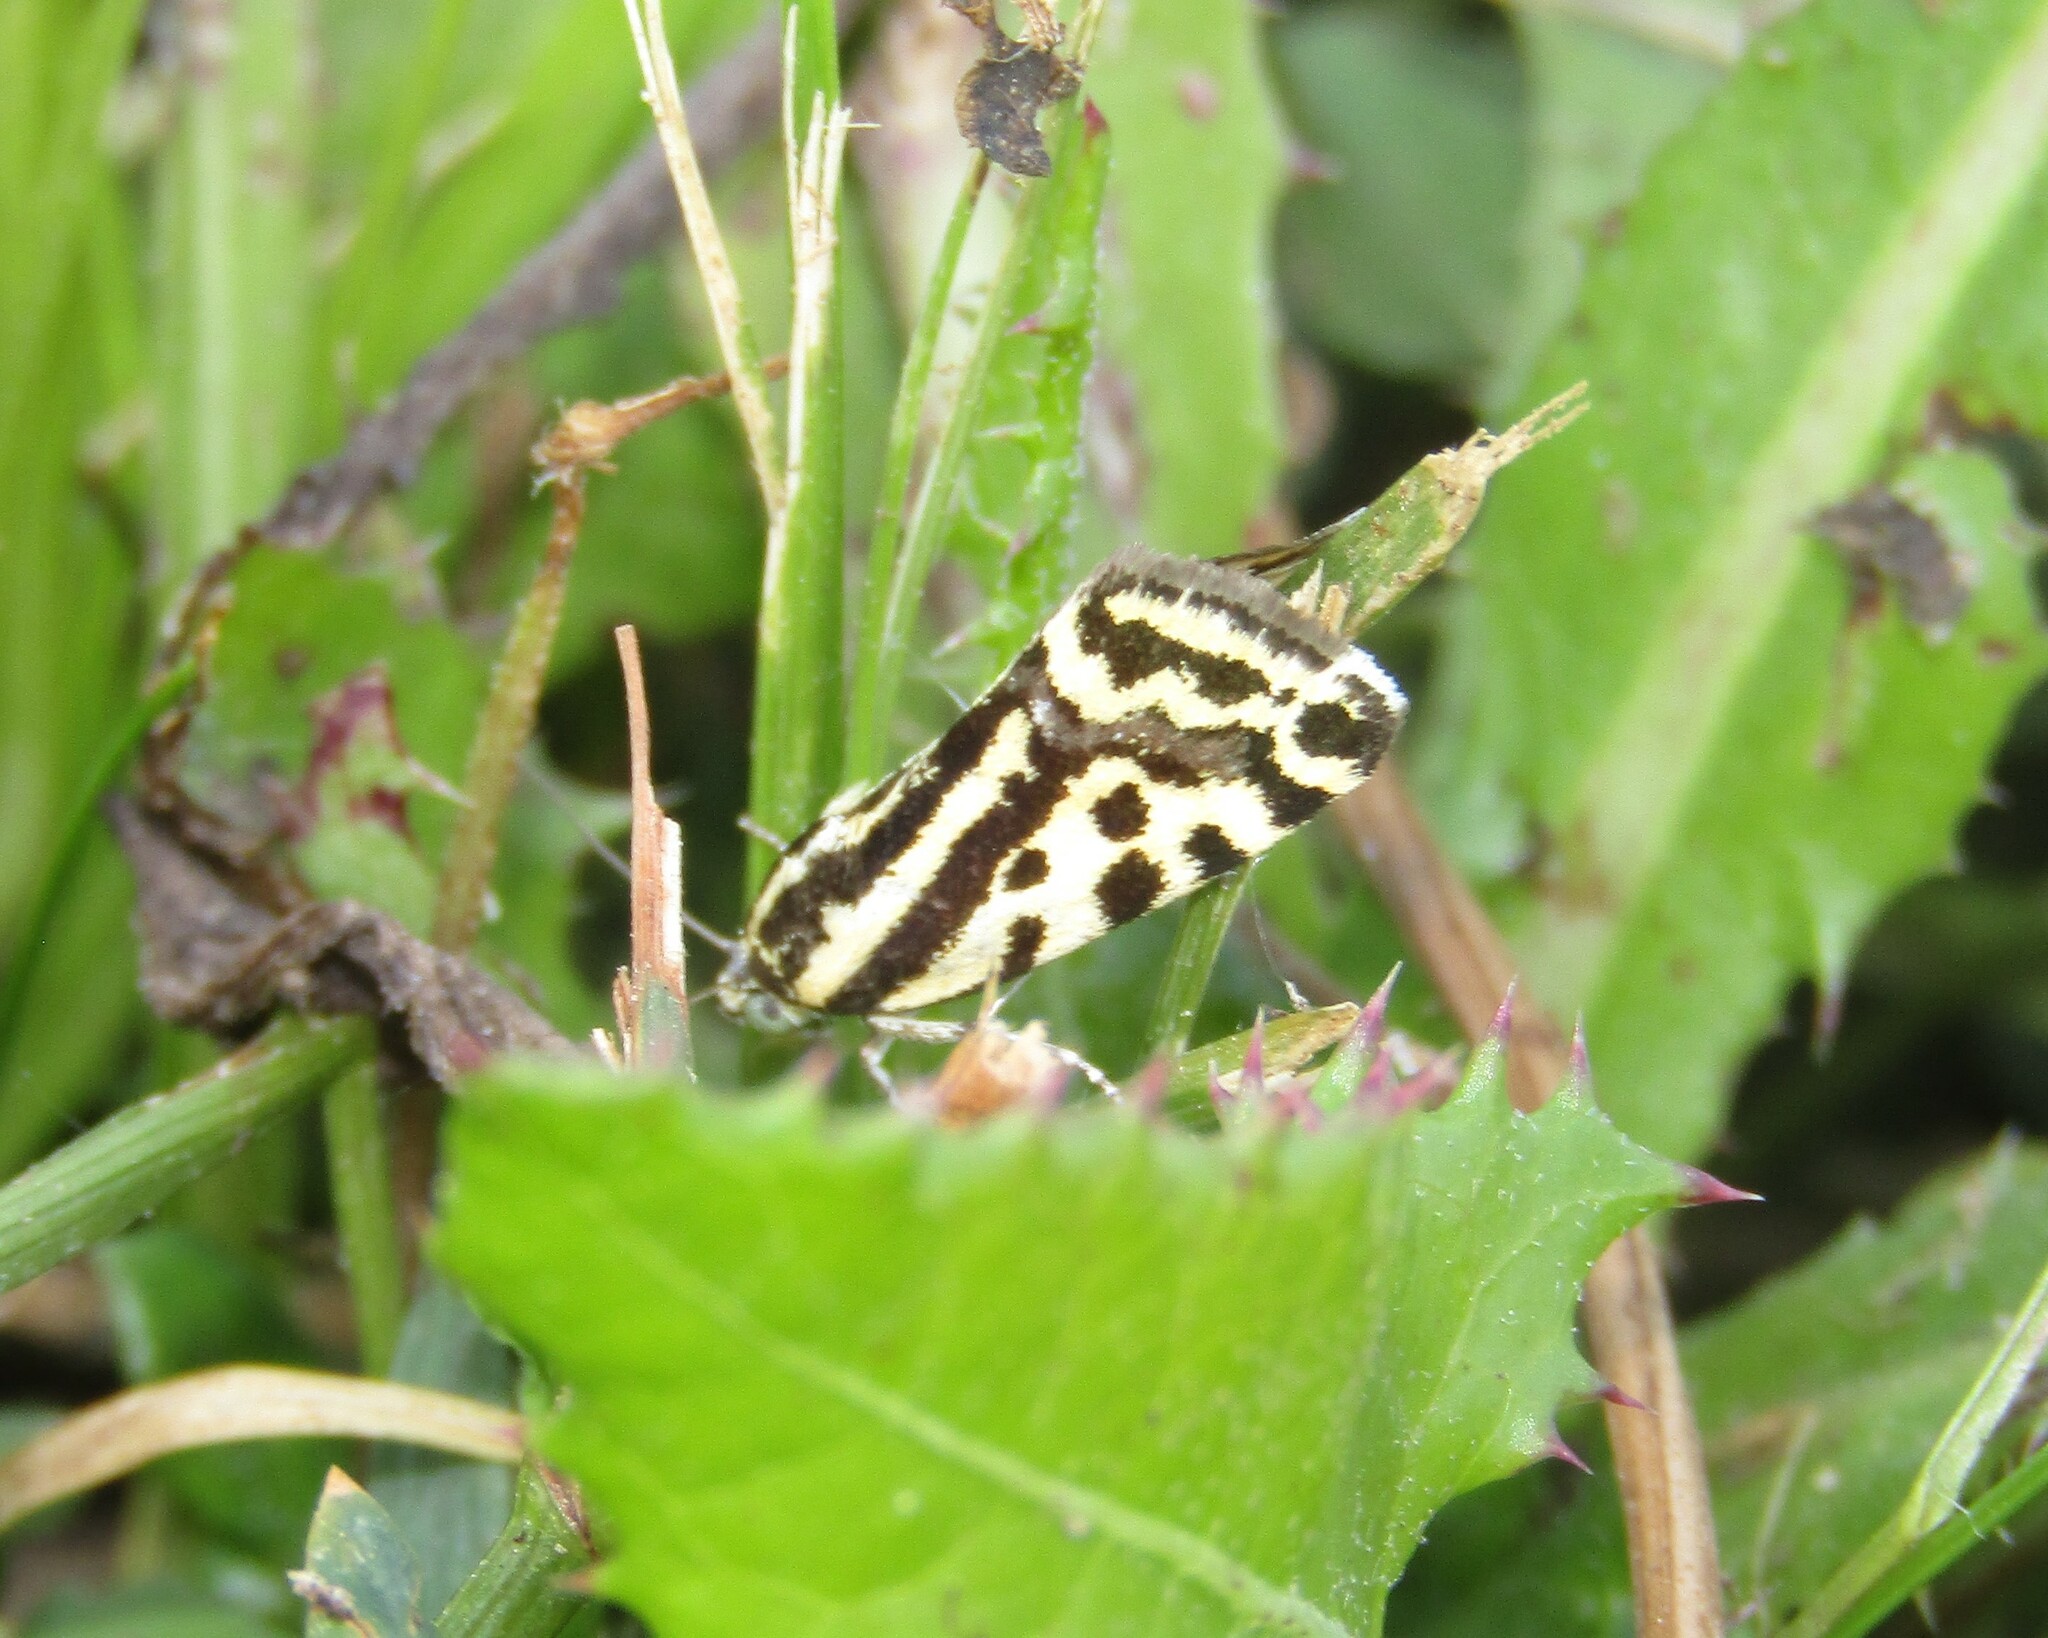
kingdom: Animalia
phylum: Arthropoda
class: Insecta
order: Lepidoptera
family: Noctuidae
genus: Acontia
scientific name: Acontia trabealis
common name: Spotted sulphur
